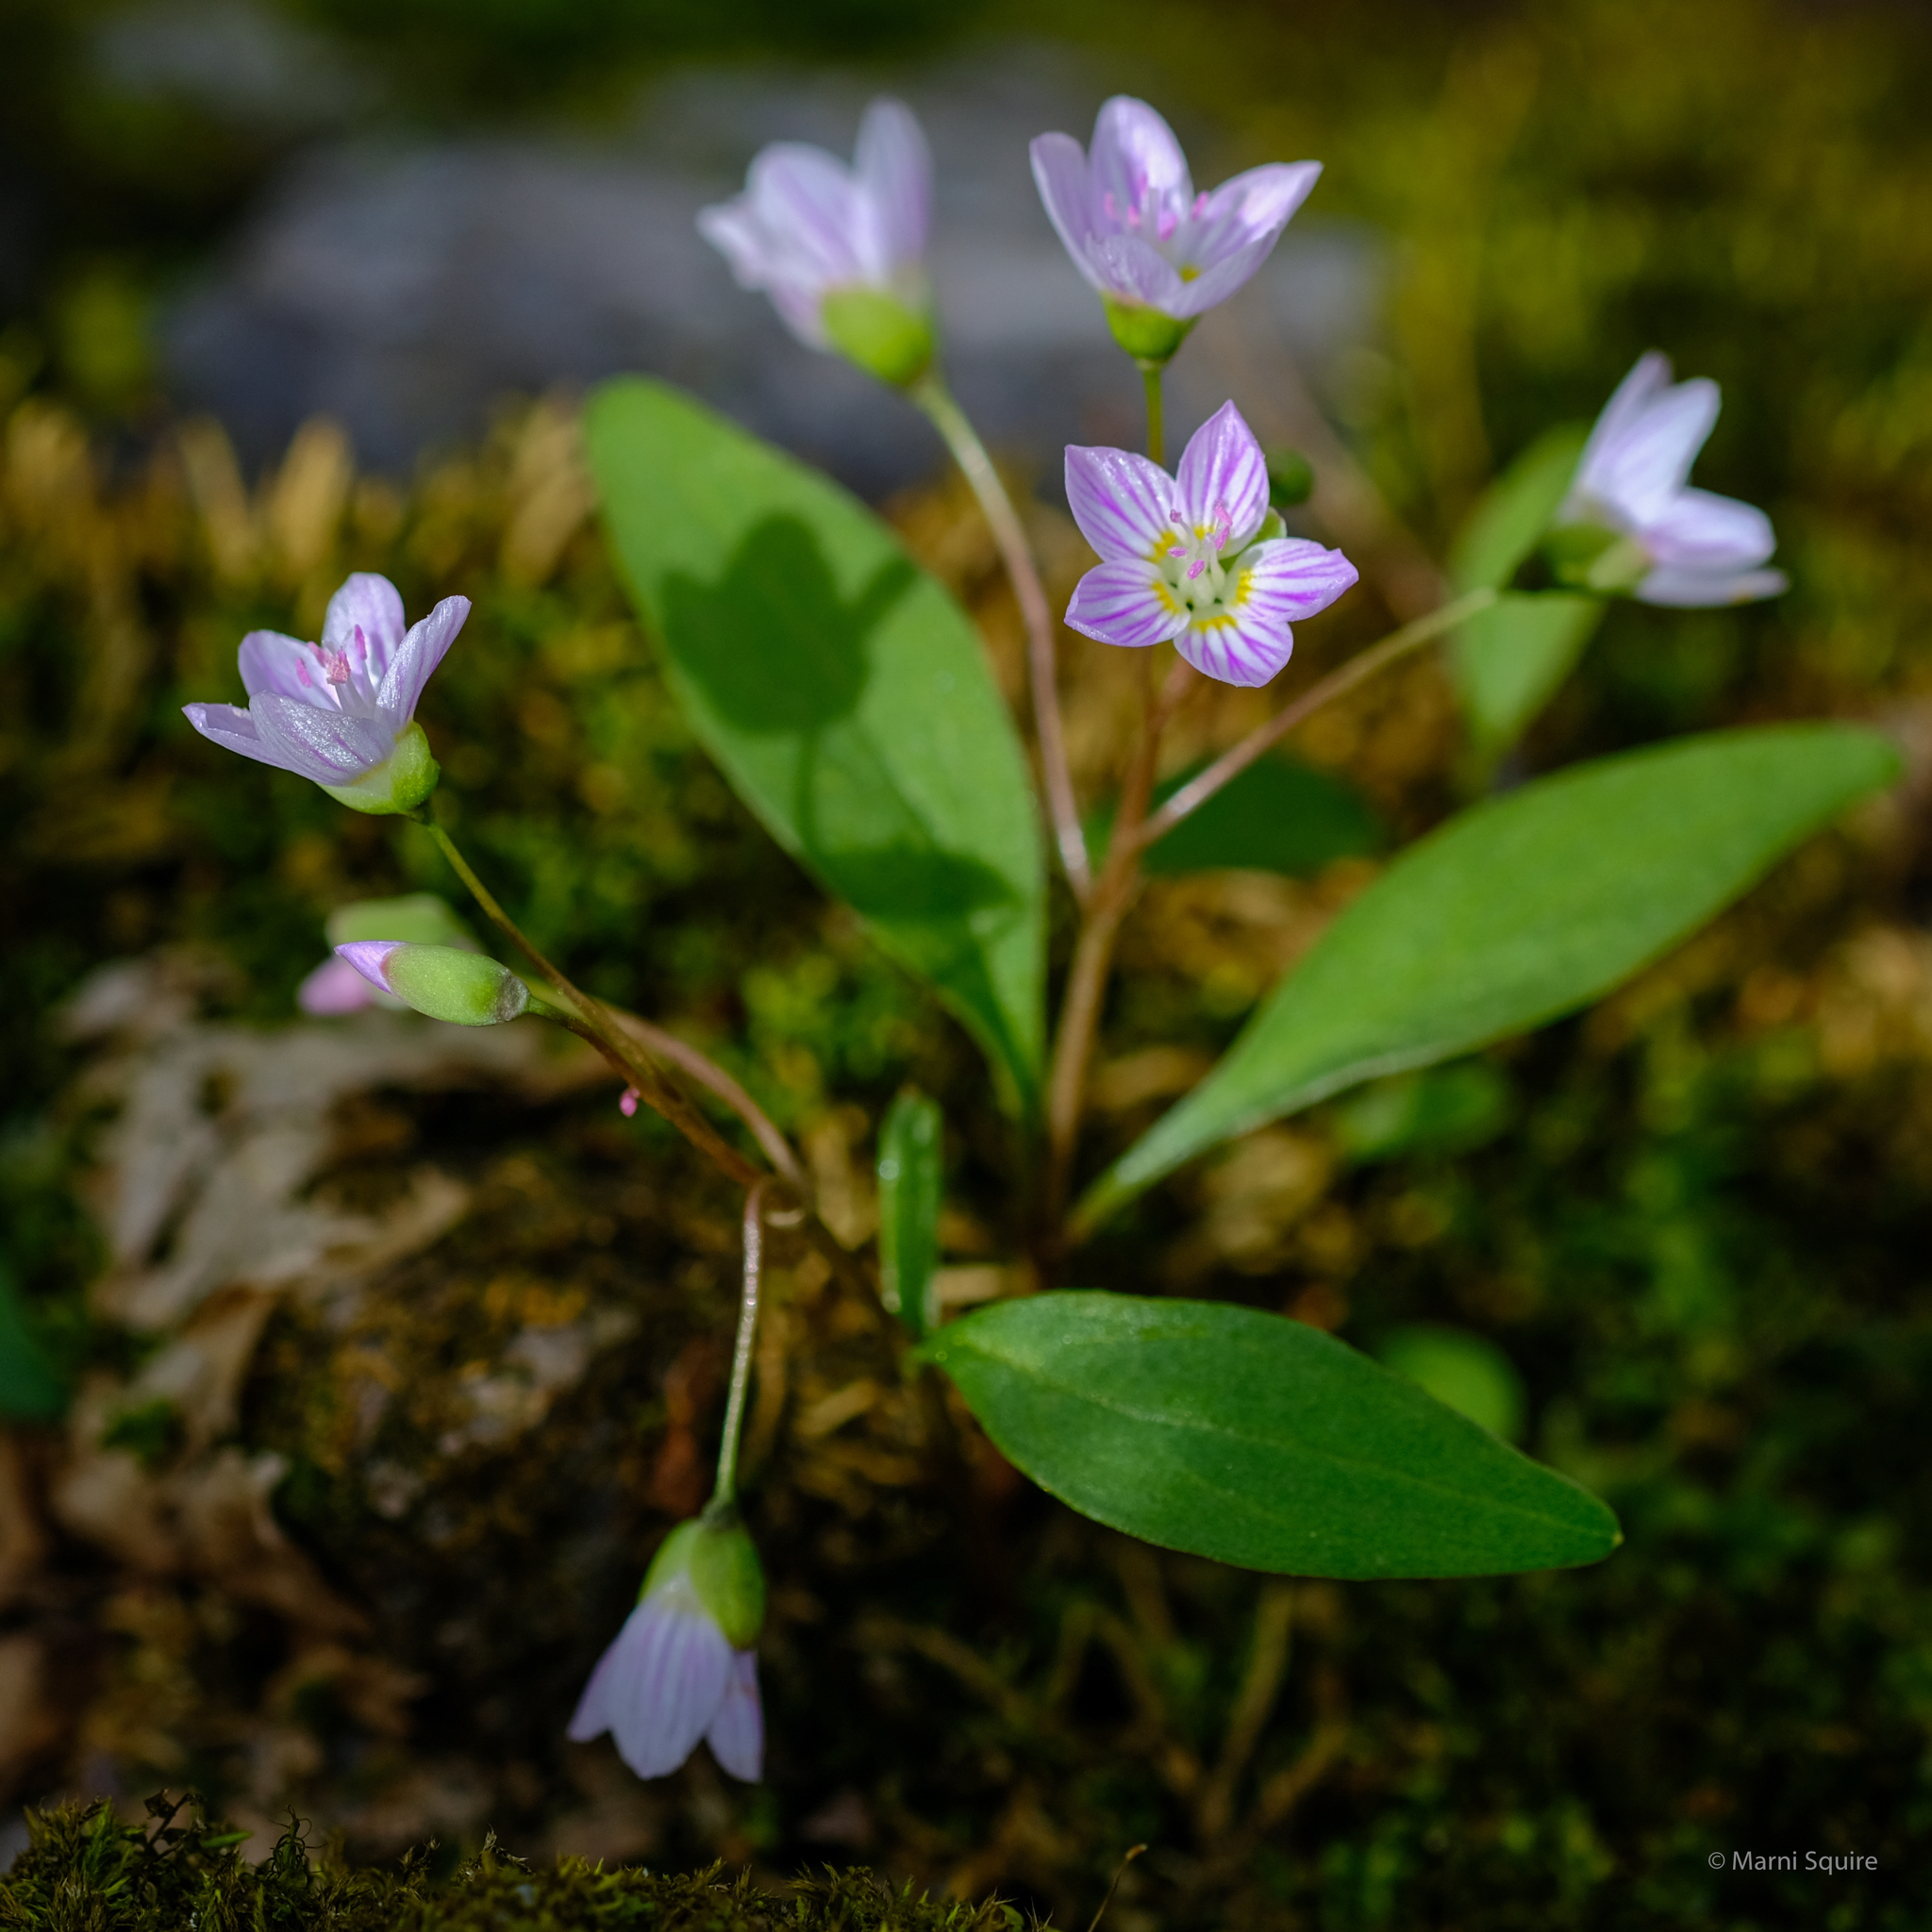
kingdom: Plantae
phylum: Tracheophyta
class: Magnoliopsida
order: Caryophyllales
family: Montiaceae
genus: Claytonia
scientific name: Claytonia caroliniana
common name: Carolina spring beauty
